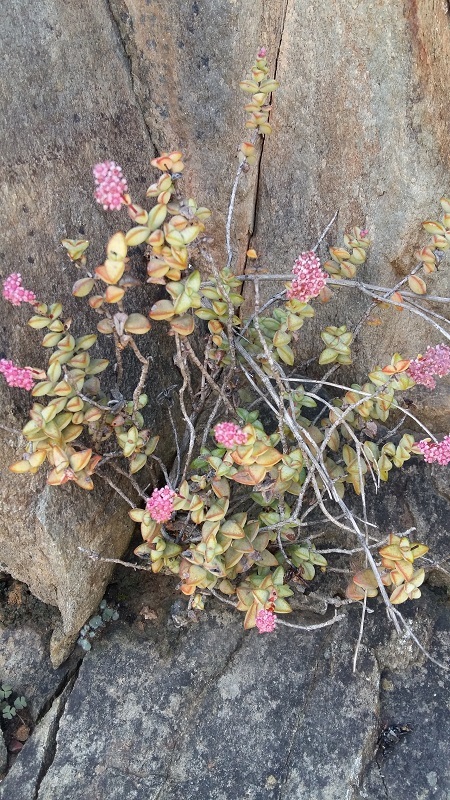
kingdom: Plantae
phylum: Tracheophyta
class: Magnoliopsida
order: Saxifragales
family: Crassulaceae
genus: Crassula
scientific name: Crassula rupestris
